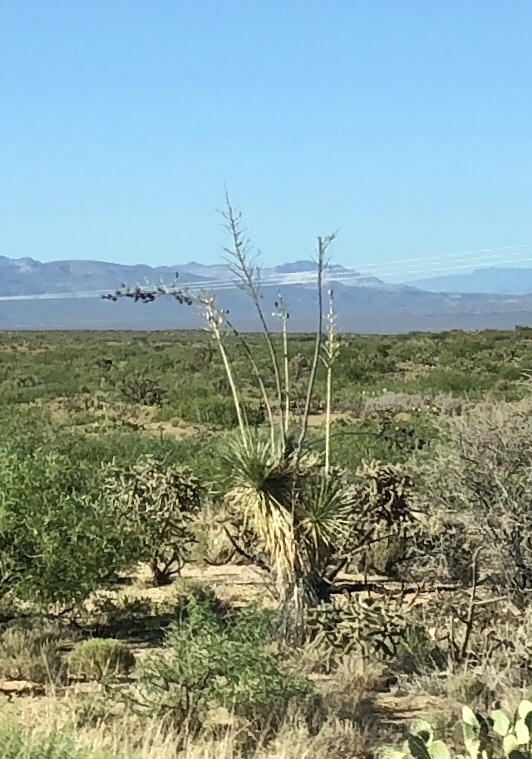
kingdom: Plantae
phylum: Tracheophyta
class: Liliopsida
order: Asparagales
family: Asparagaceae
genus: Yucca
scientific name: Yucca elata
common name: Palmella
